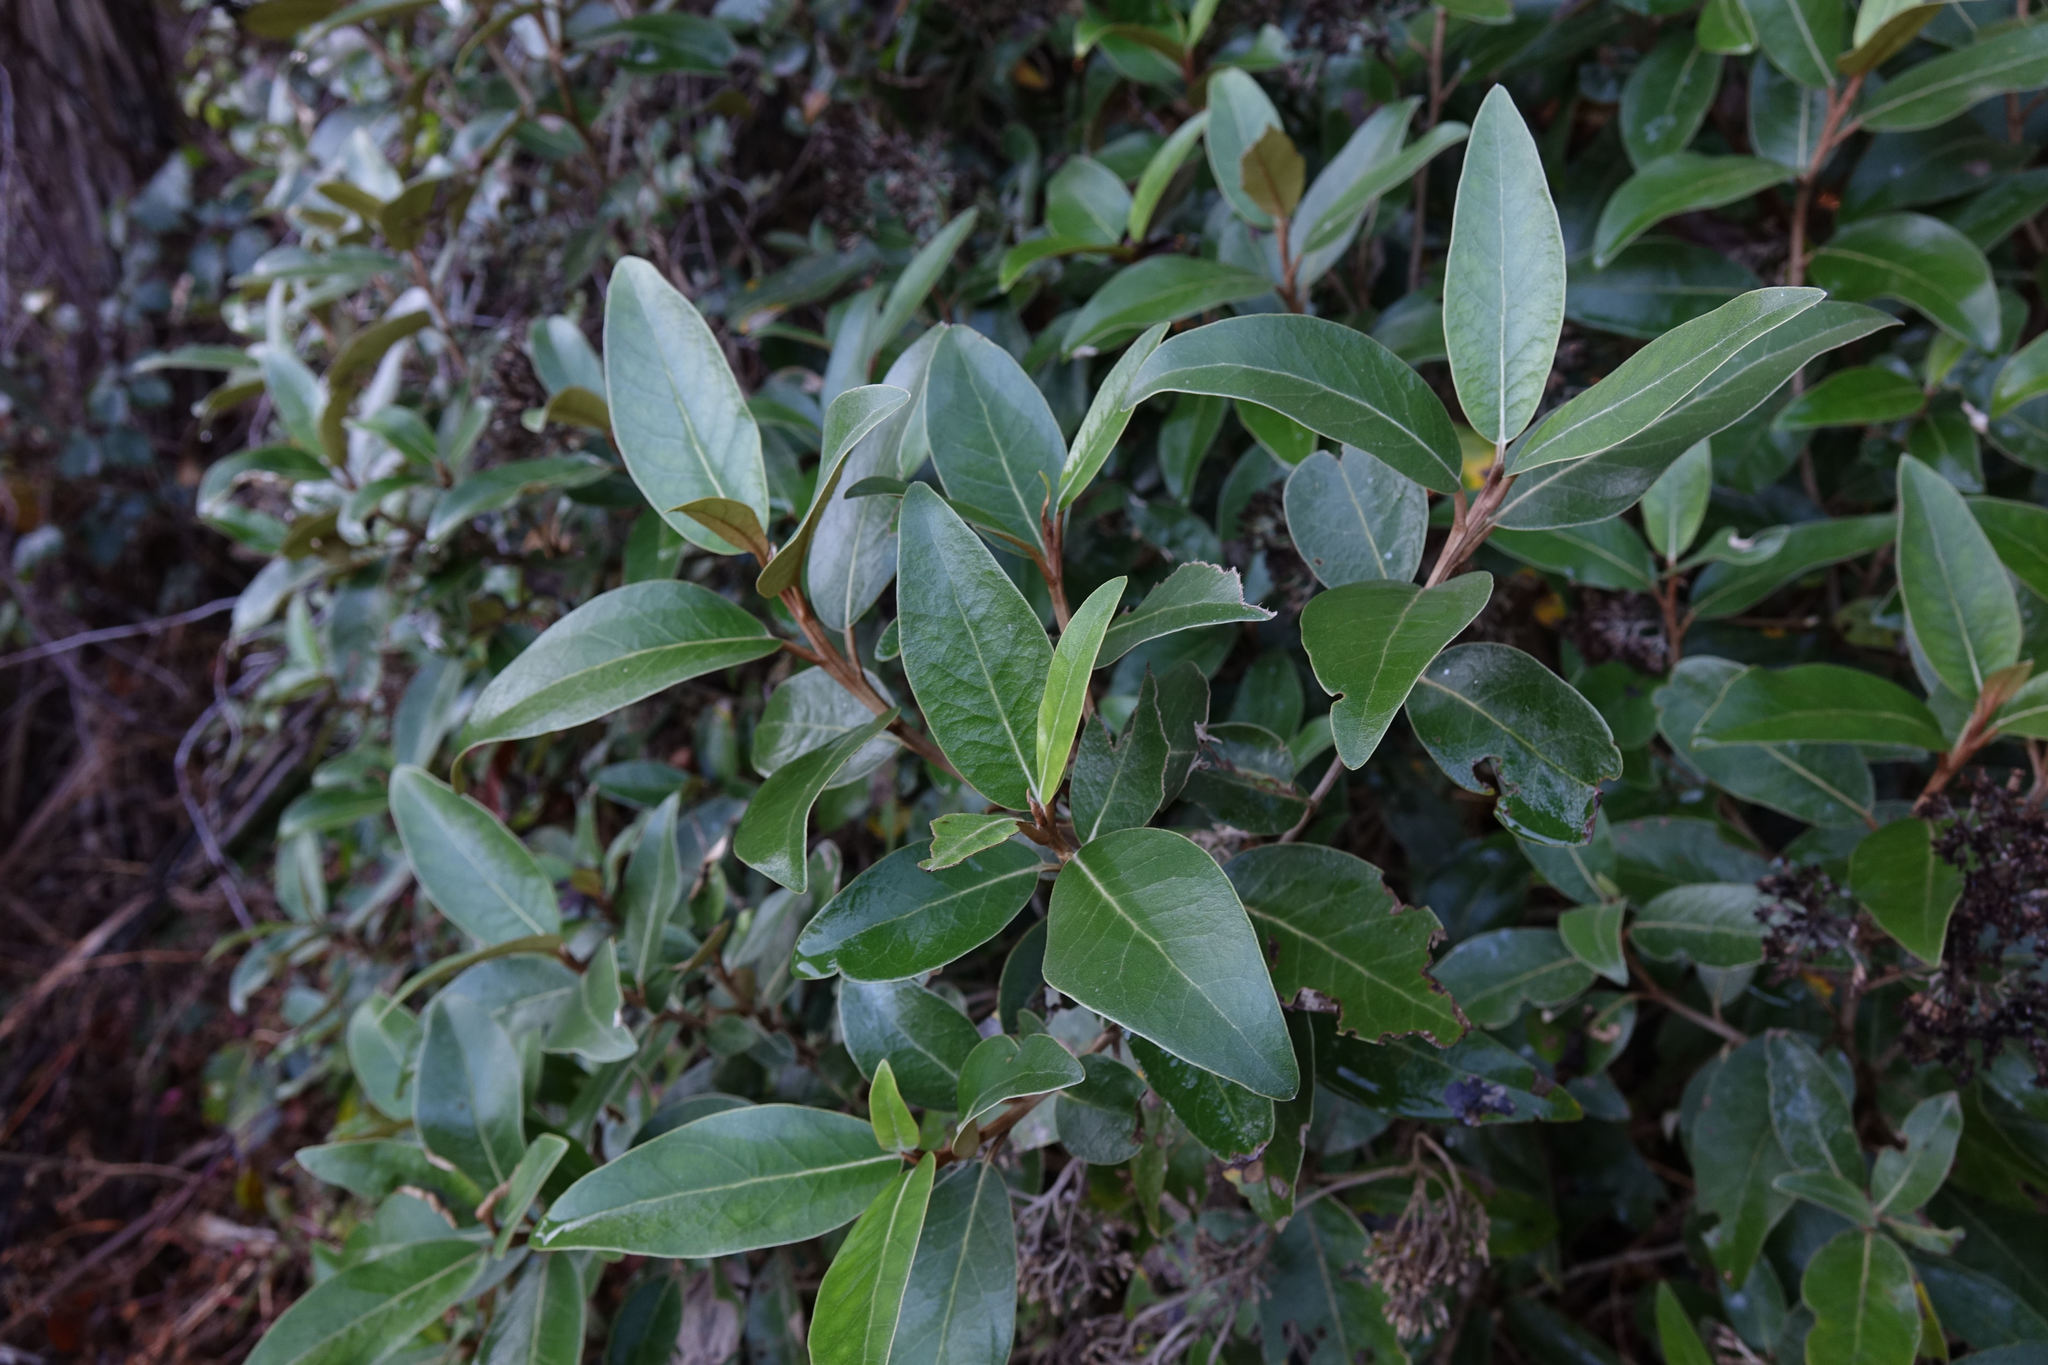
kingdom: Plantae
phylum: Tracheophyta
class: Magnoliopsida
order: Asterales
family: Asteraceae
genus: Olearia
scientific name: Olearia avicenniifolia
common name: Mangrove-leaf daisybush
